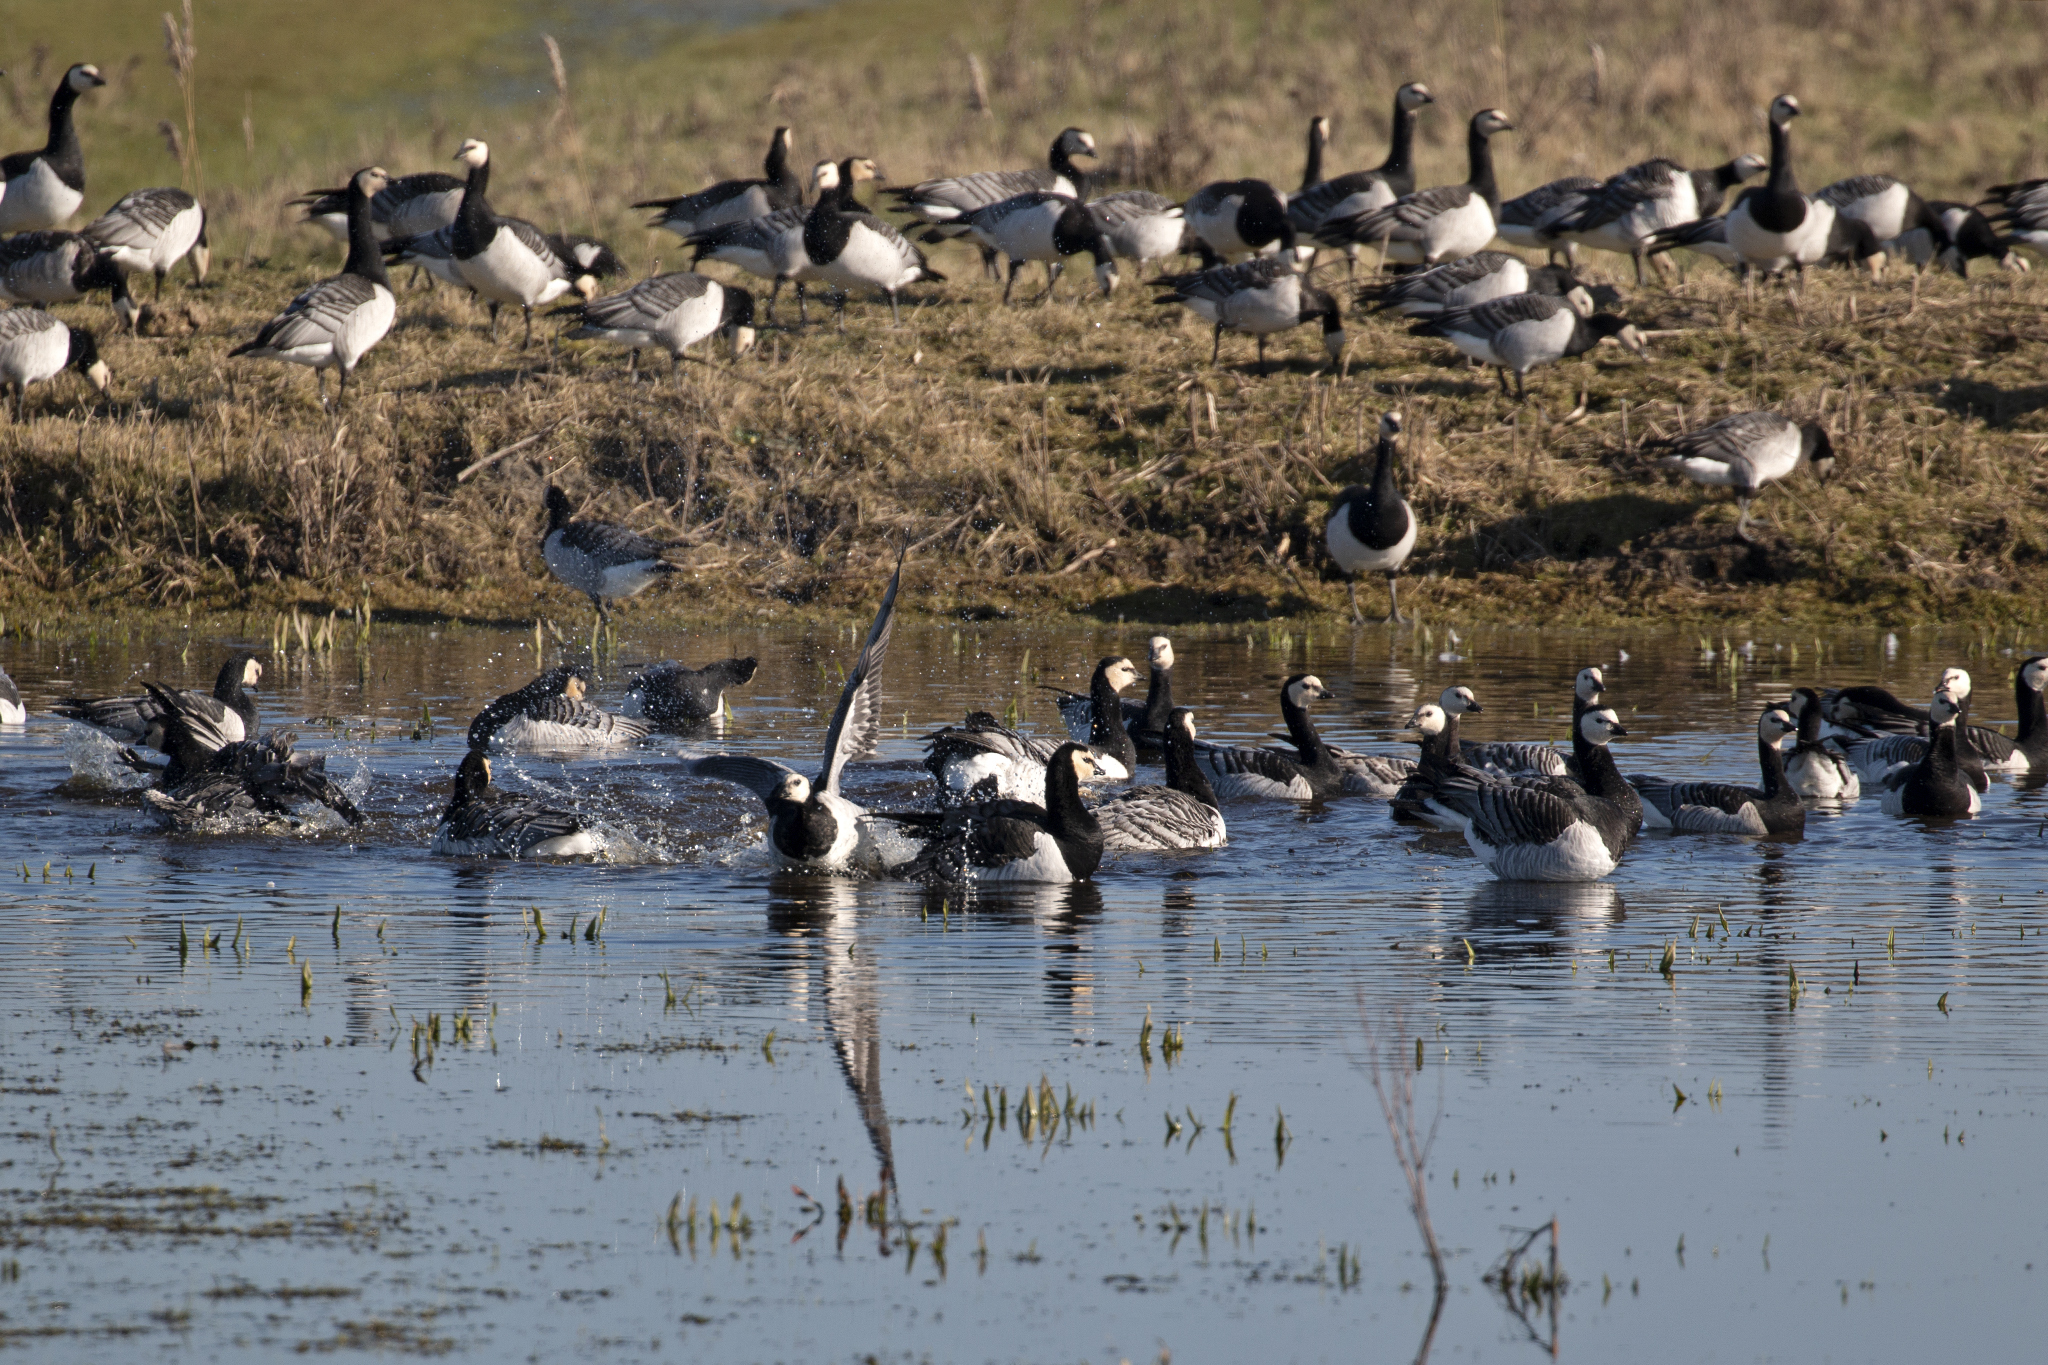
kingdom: Animalia
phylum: Chordata
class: Aves
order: Anseriformes
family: Anatidae
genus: Branta
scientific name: Branta leucopsis
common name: Barnacle goose
